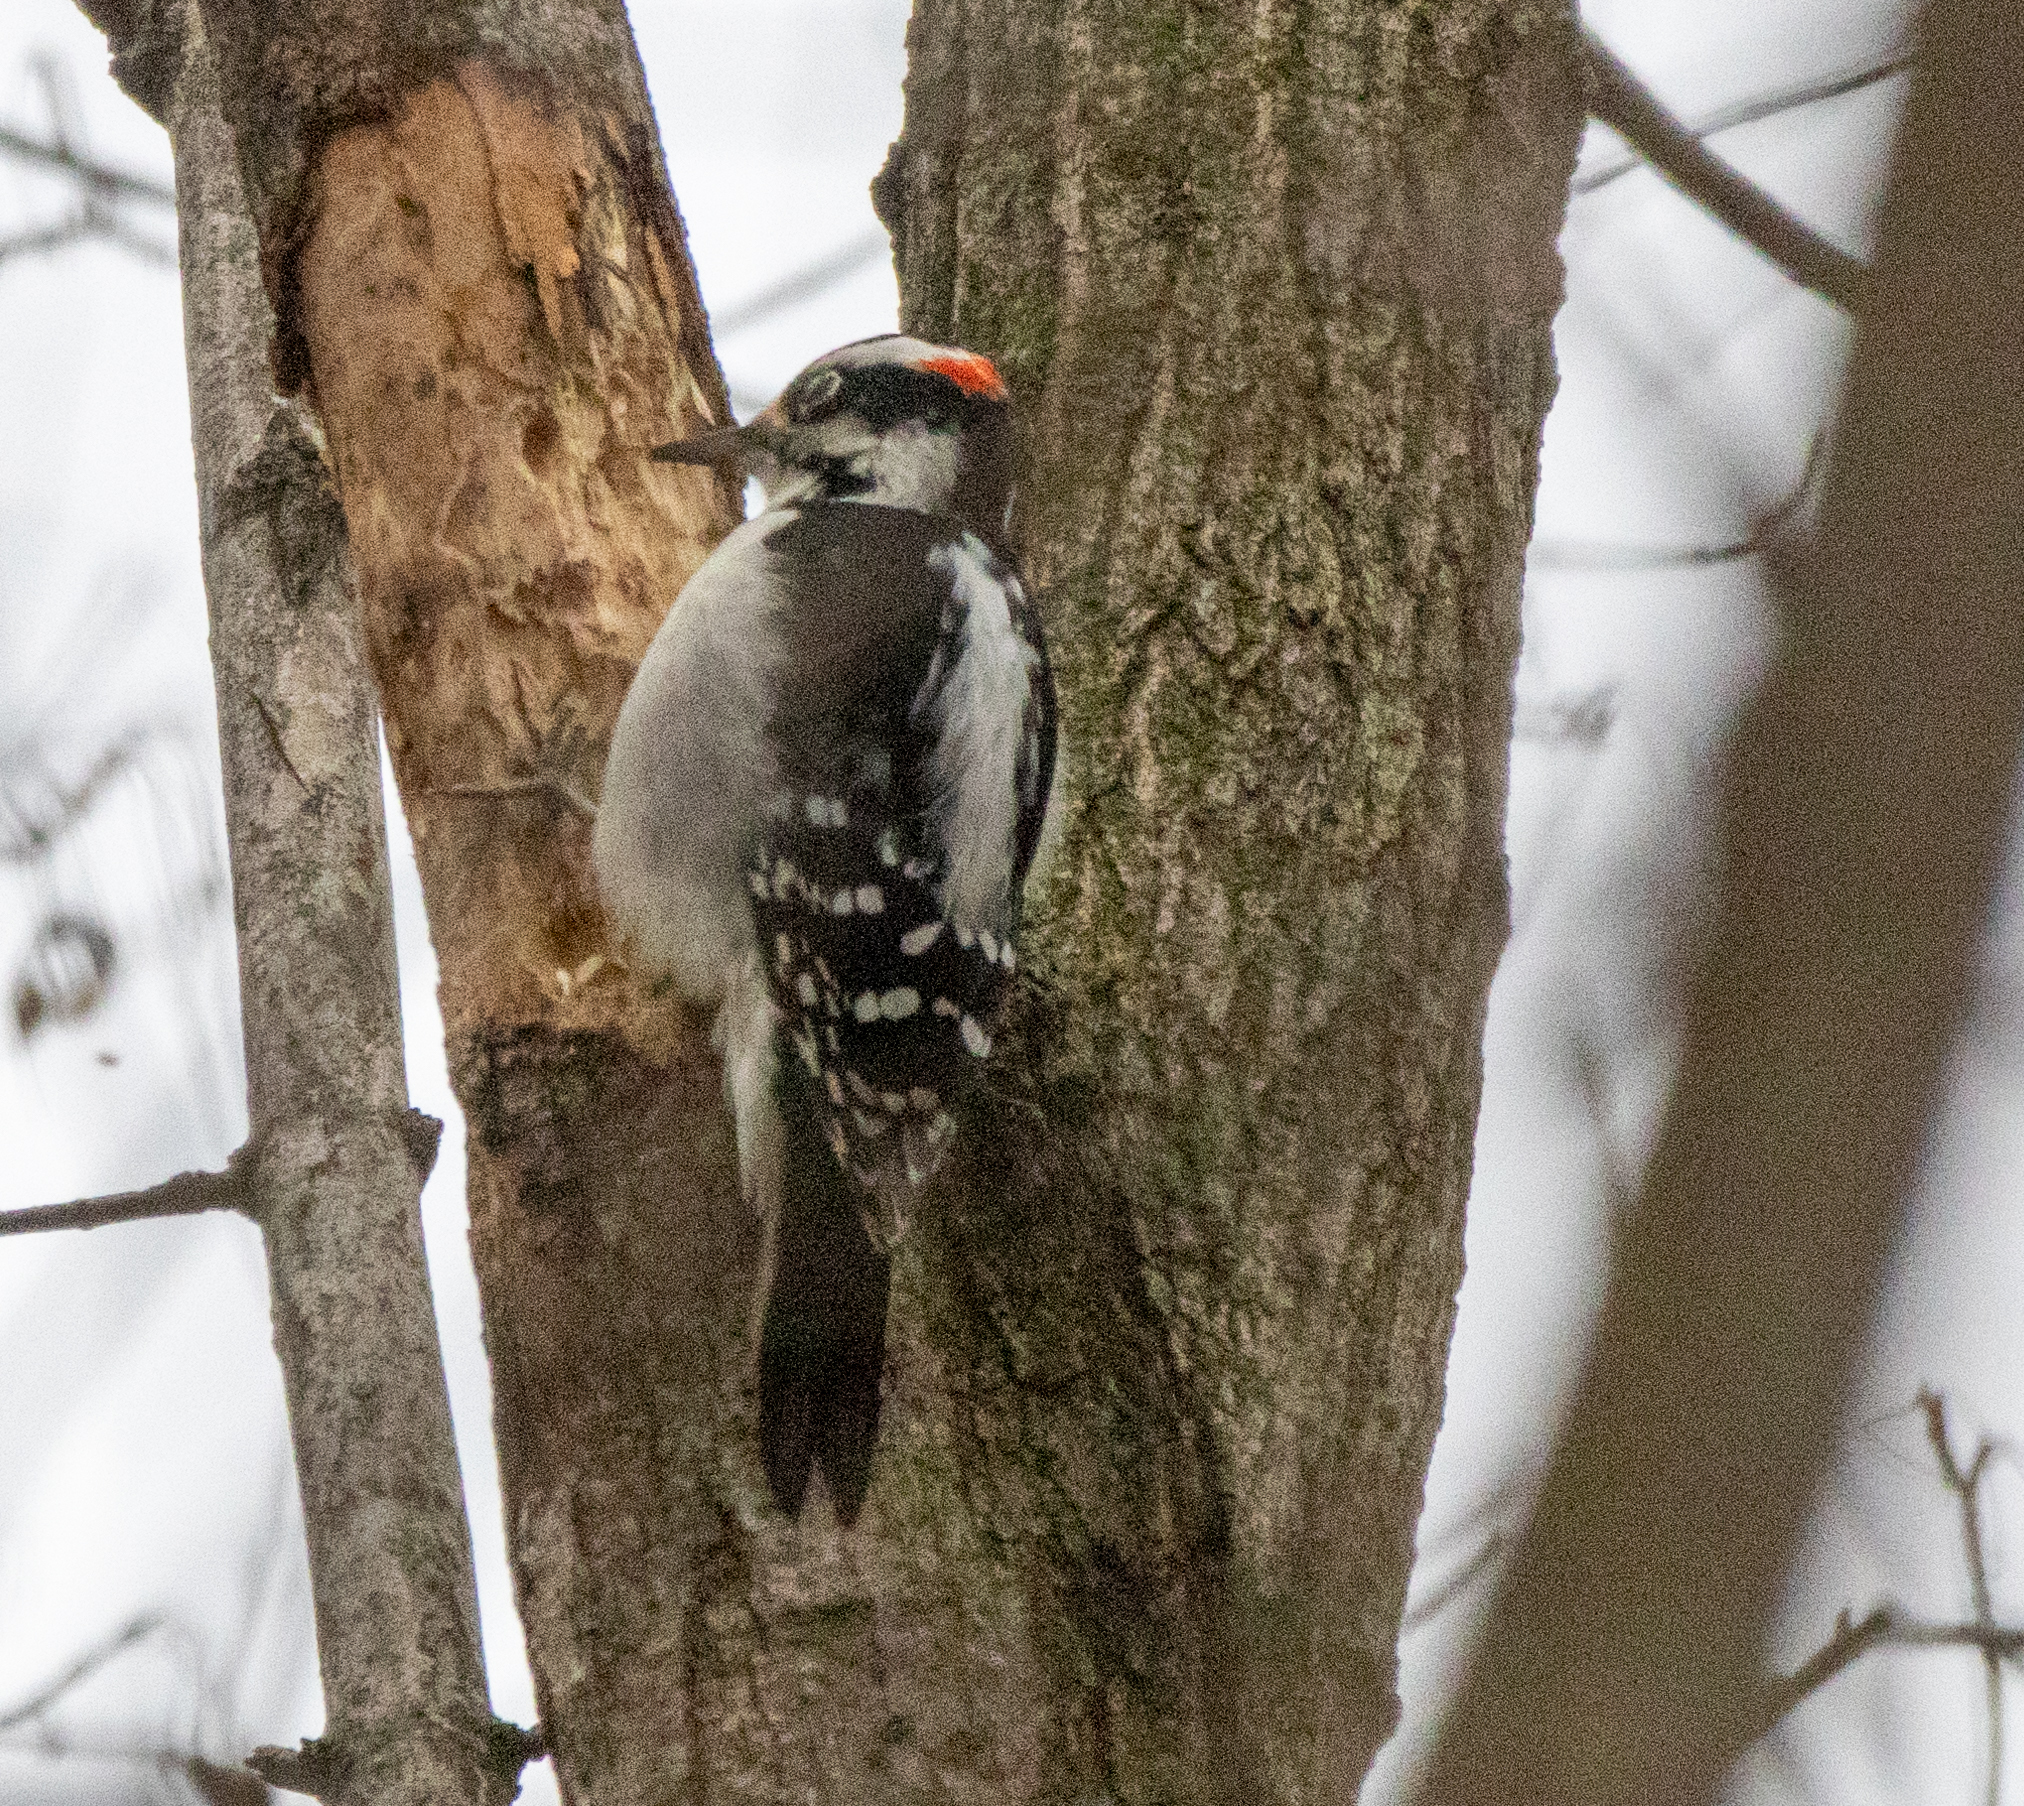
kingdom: Animalia
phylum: Chordata
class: Aves
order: Piciformes
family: Picidae
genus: Leuconotopicus
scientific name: Leuconotopicus villosus
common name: Hairy woodpecker
